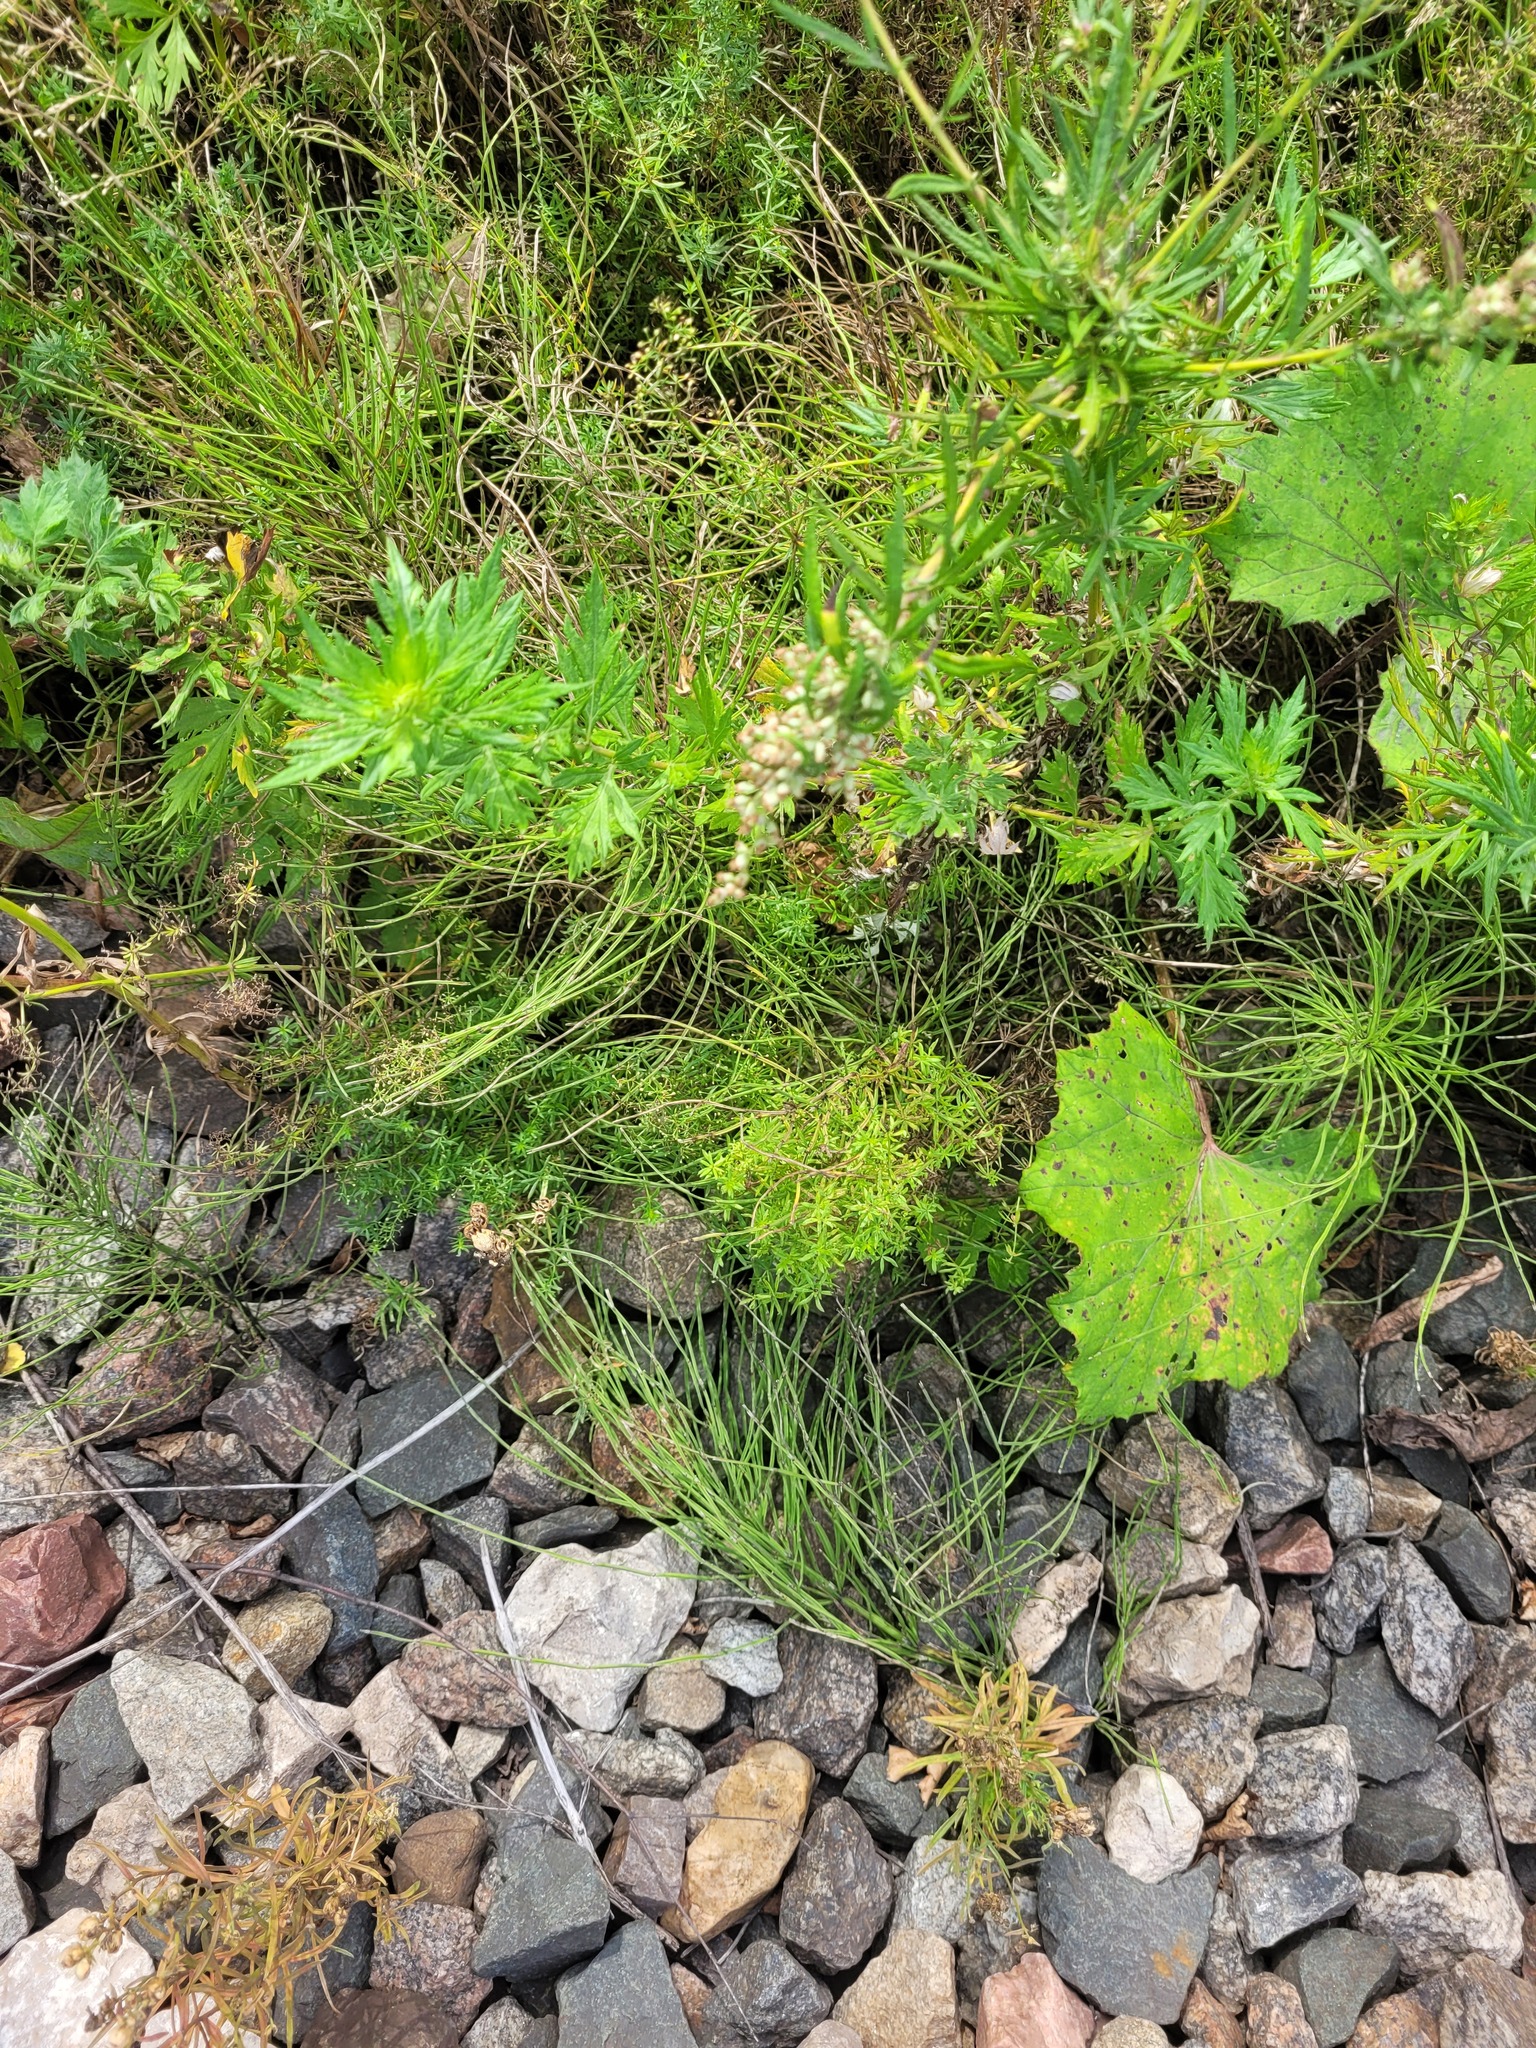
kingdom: Plantae
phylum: Tracheophyta
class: Magnoliopsida
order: Gentianales
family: Rubiaceae
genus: Galium
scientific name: Galium mollugo
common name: Hedge bedstraw
